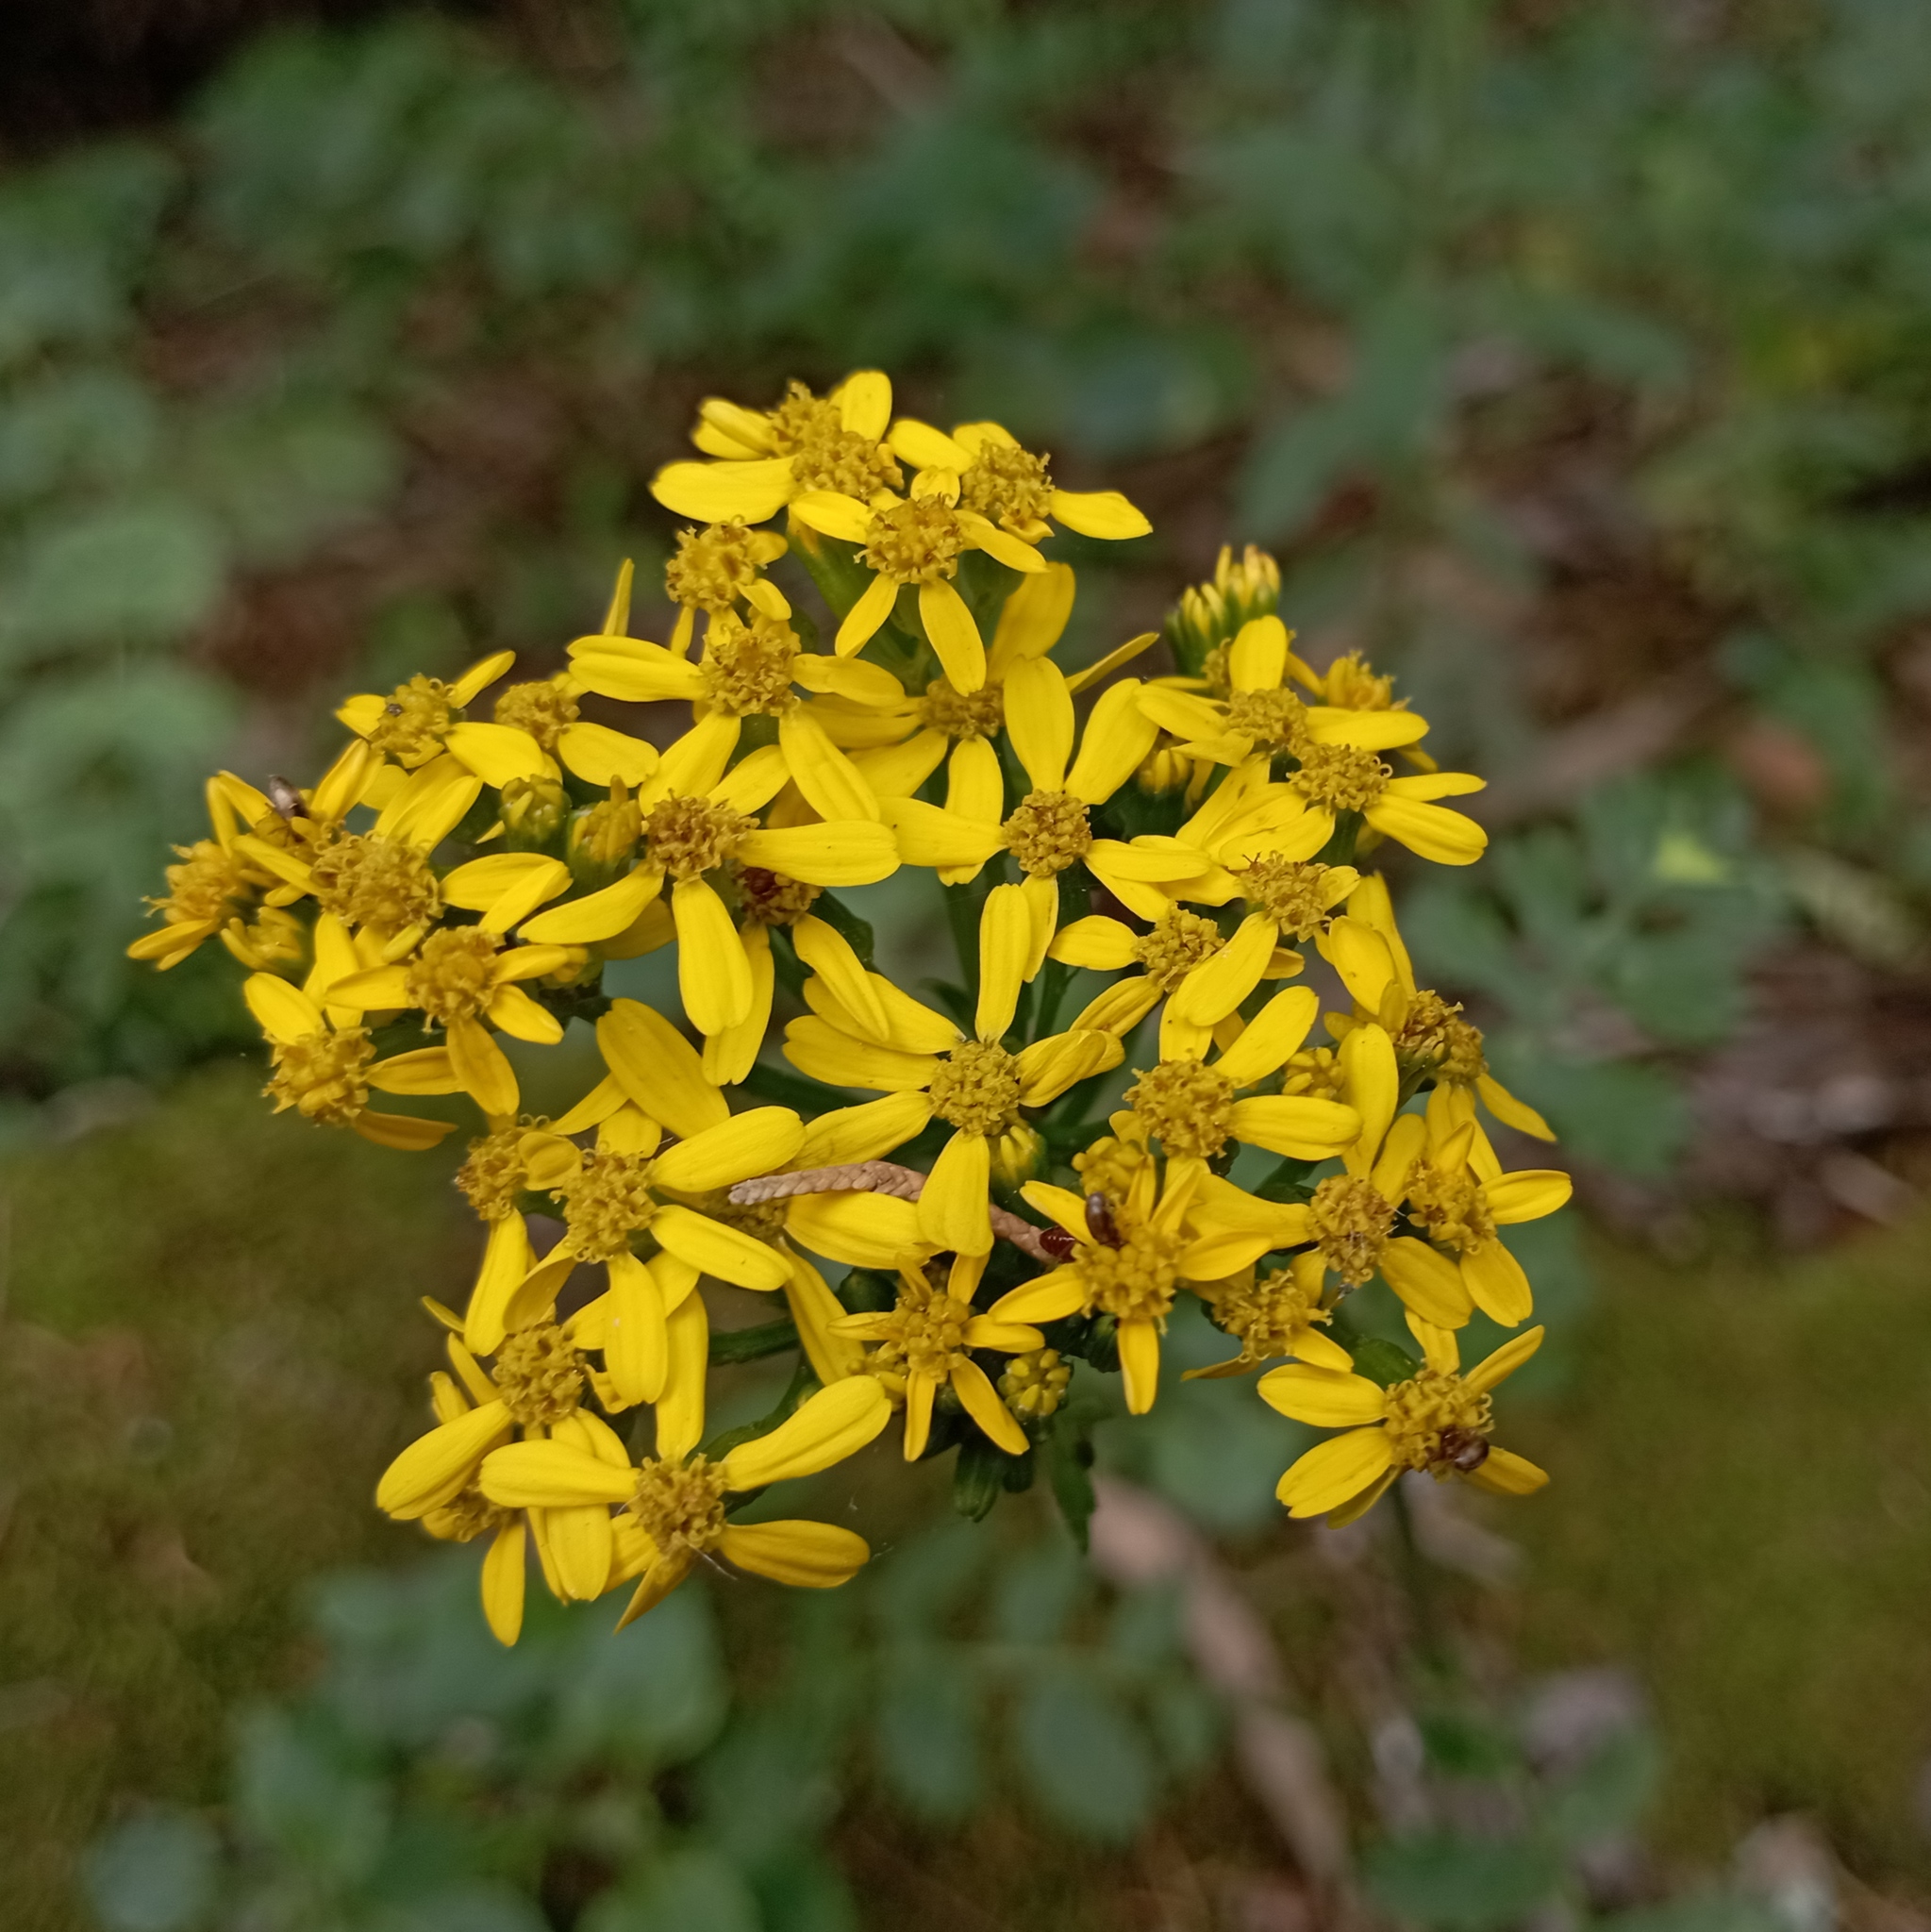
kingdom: Plantae
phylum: Tracheophyta
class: Magnoliopsida
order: Asterales
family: Asteraceae
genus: Packera
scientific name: Packera sanguisorbae
